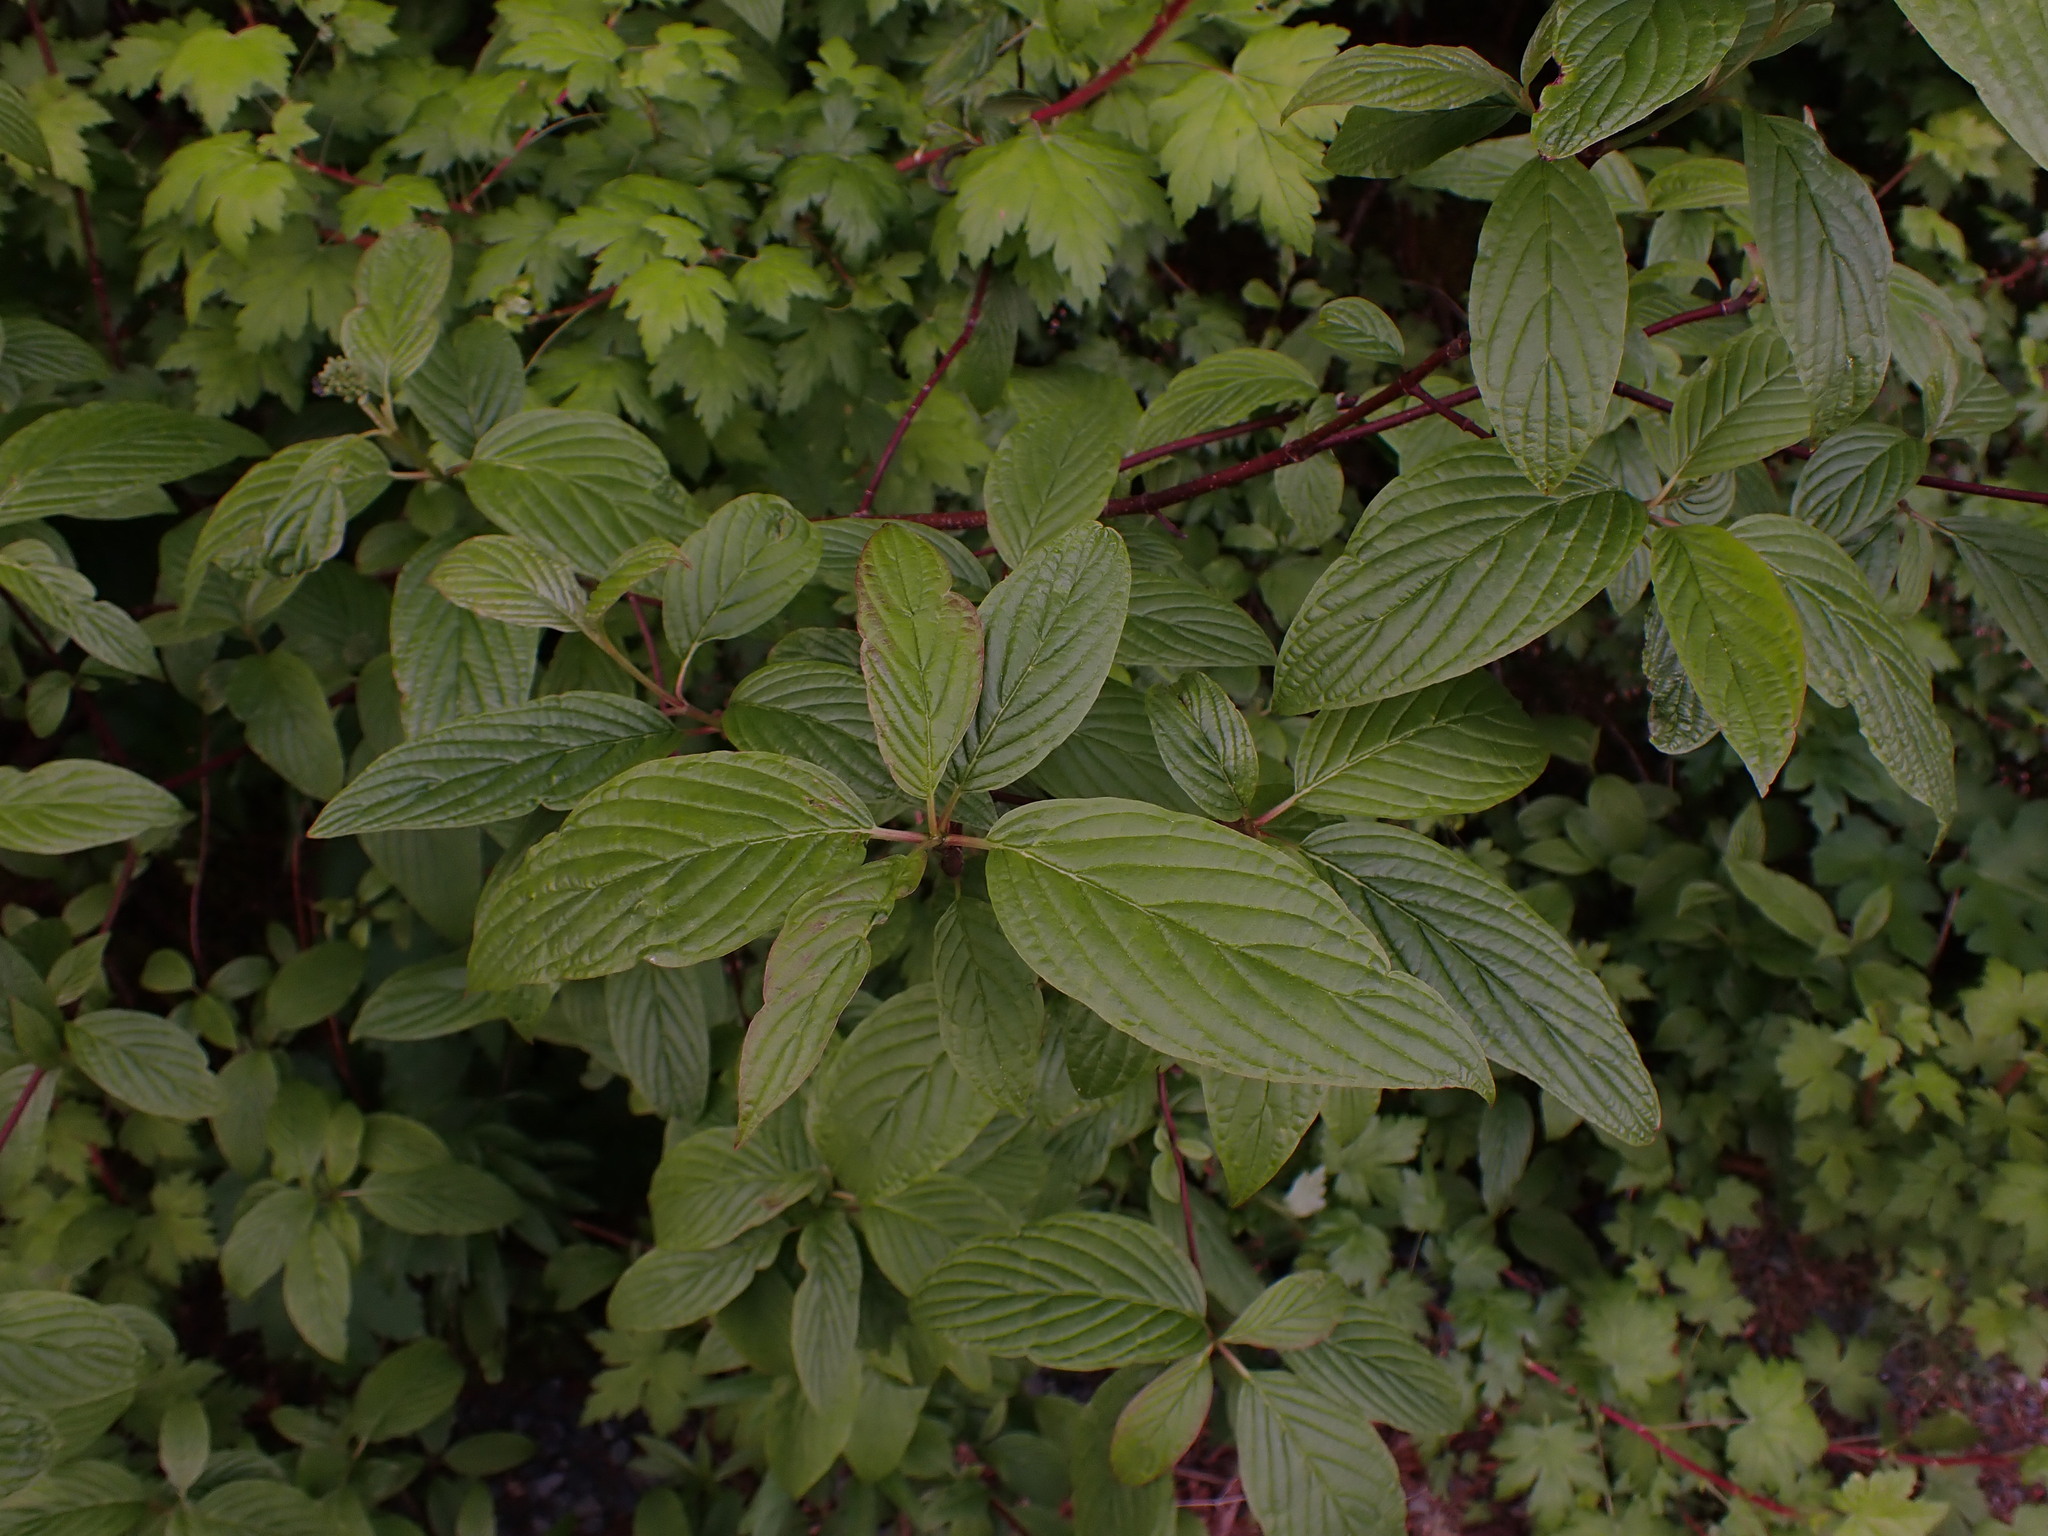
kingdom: Plantae
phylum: Tracheophyta
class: Magnoliopsida
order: Cornales
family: Cornaceae
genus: Cornus
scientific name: Cornus sericea
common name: Red-osier dogwood
